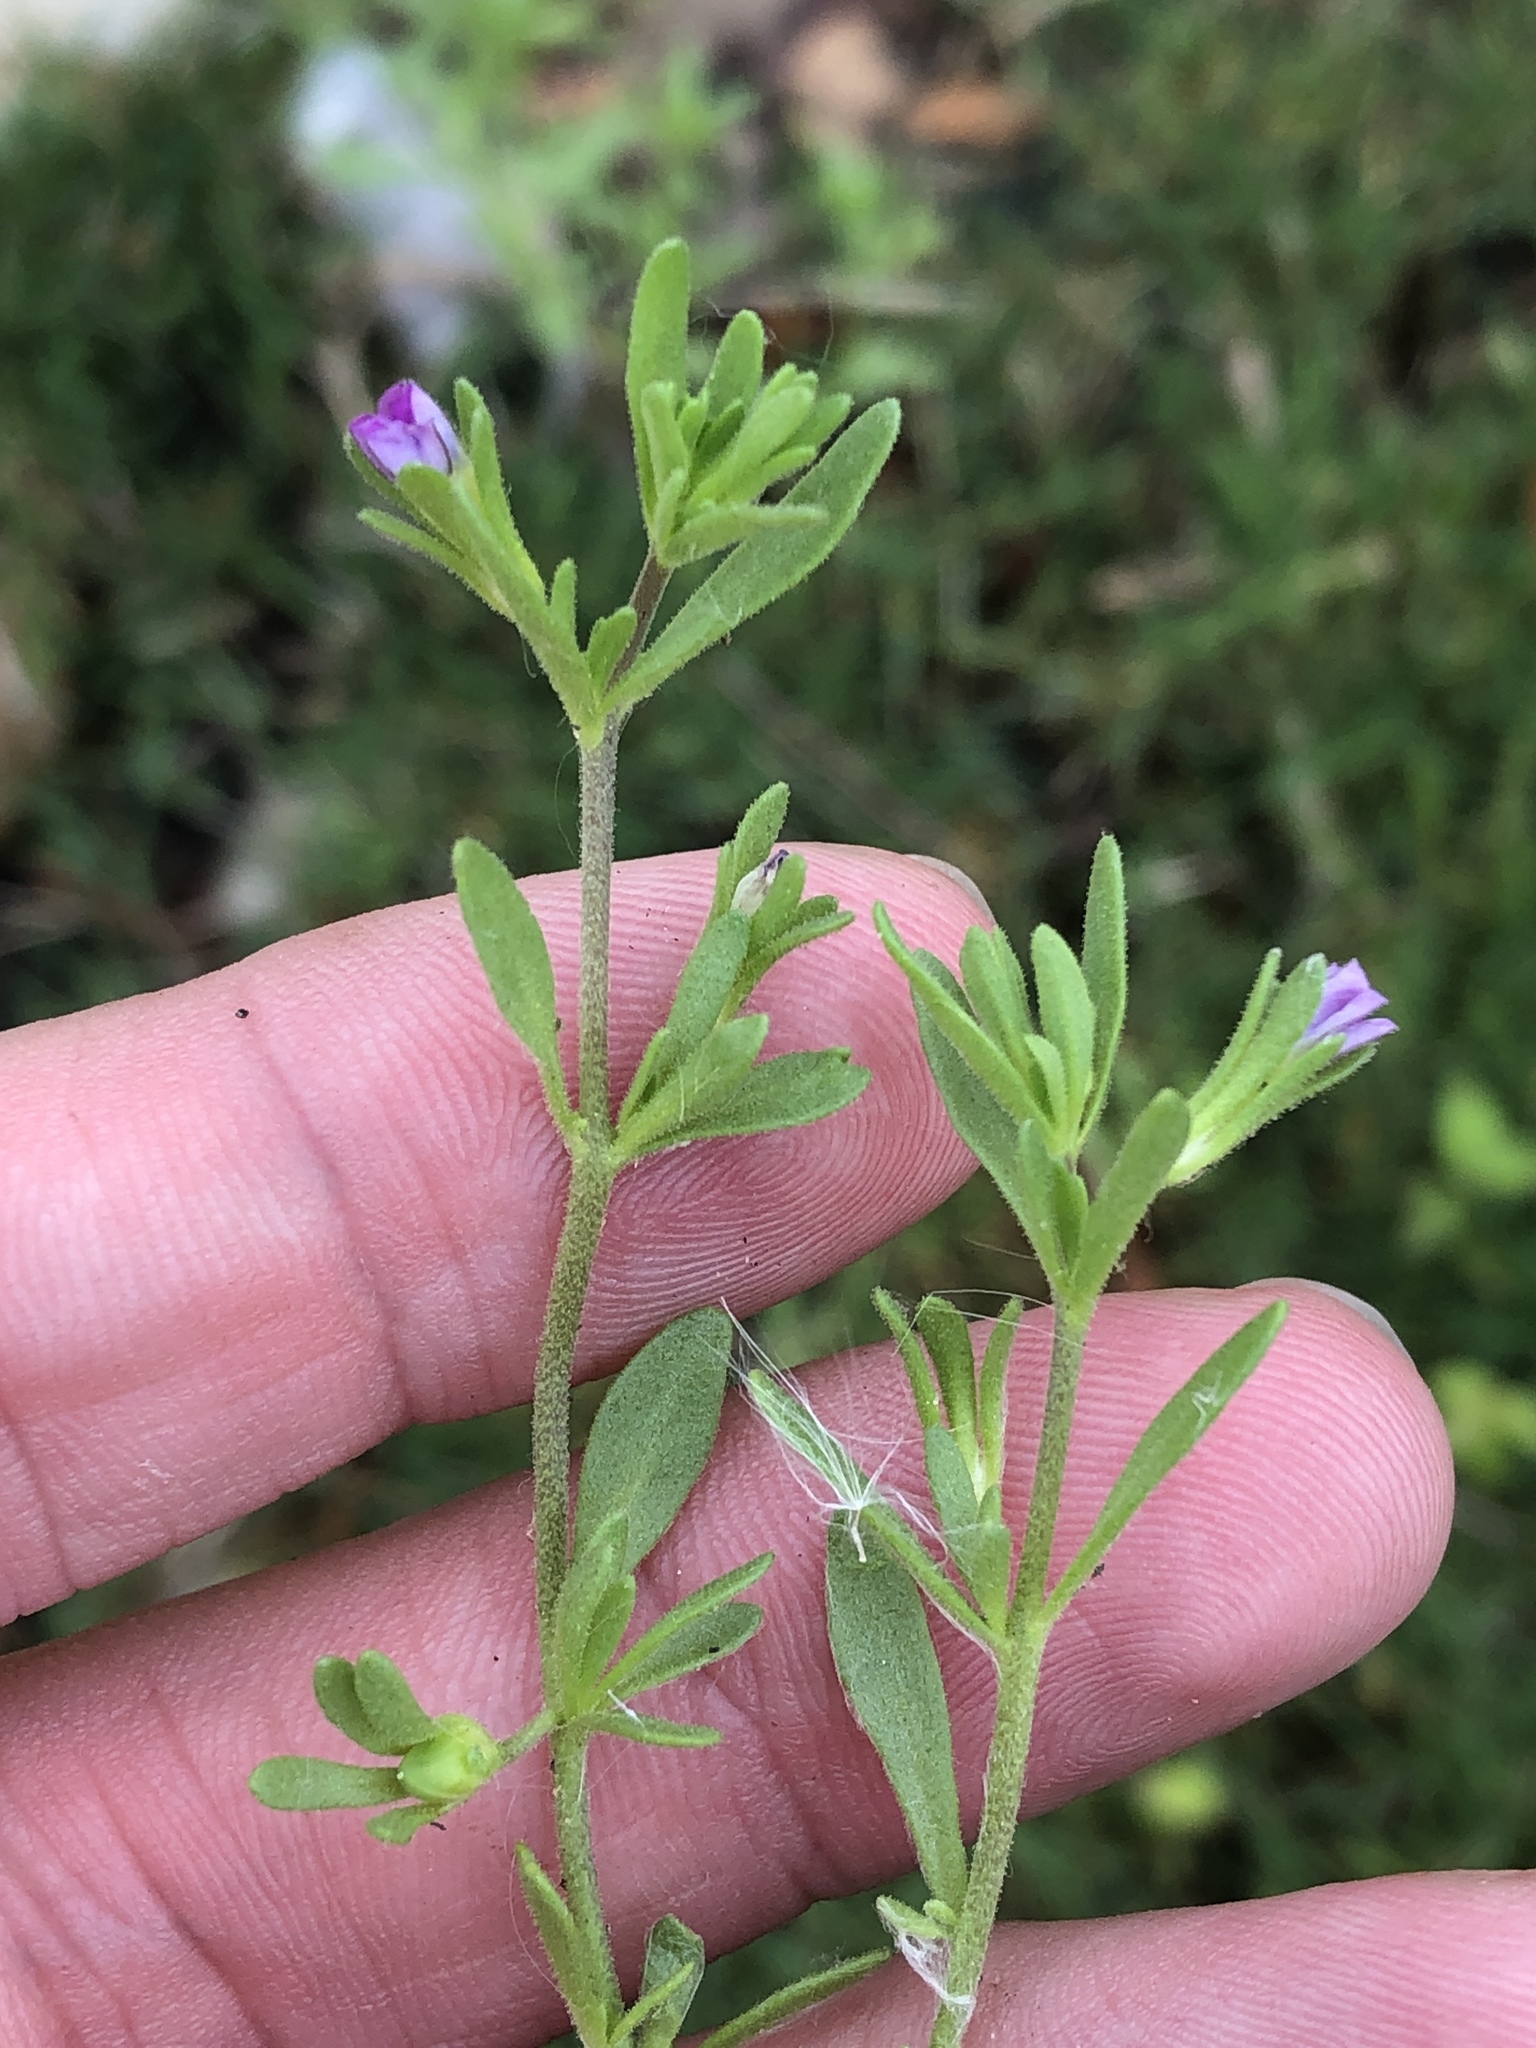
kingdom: Plantae
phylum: Tracheophyta
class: Magnoliopsida
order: Solanales
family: Solanaceae
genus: Calibrachoa
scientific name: Calibrachoa parviflora
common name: Seaside petunia
